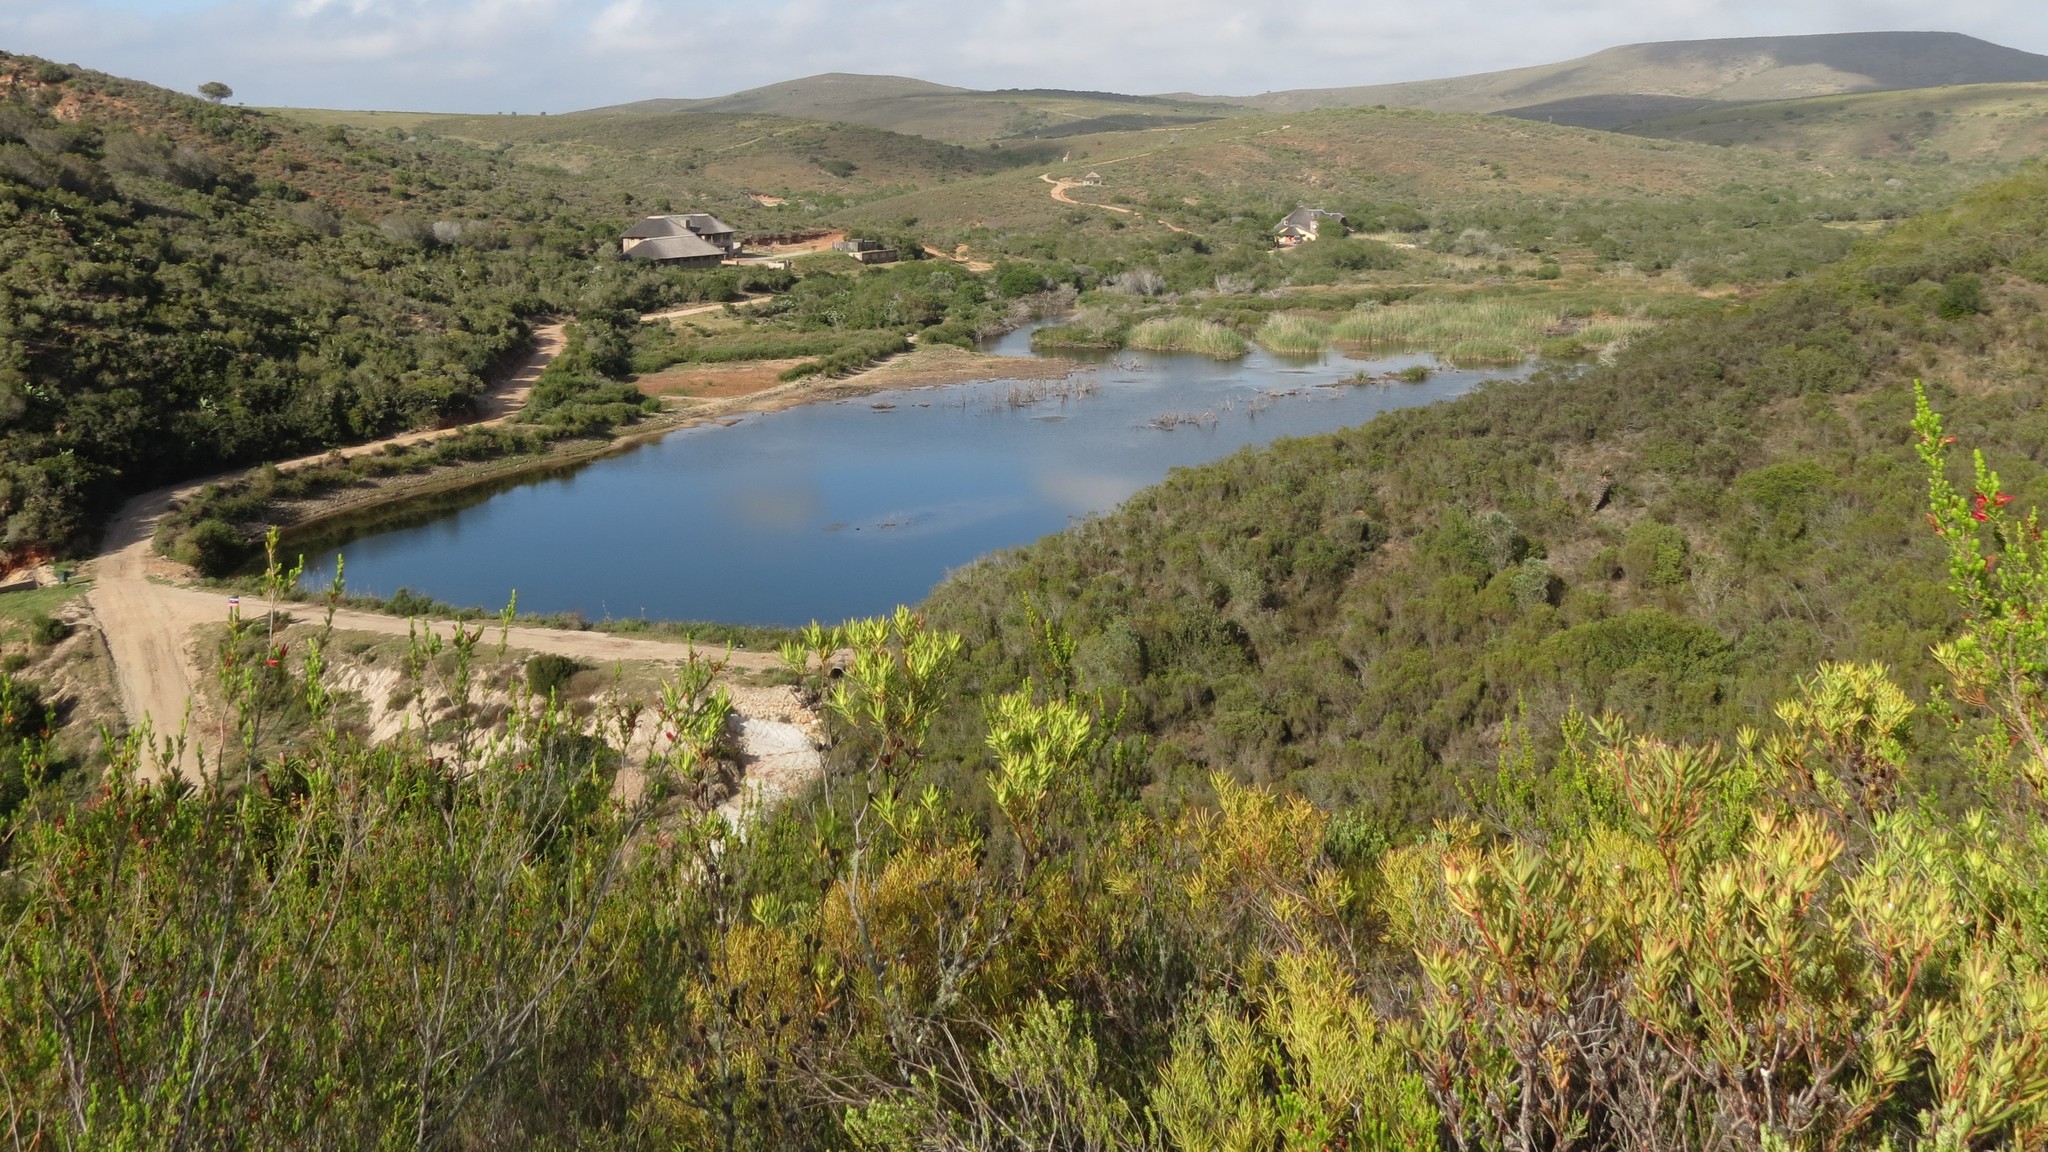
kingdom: Plantae
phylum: Tracheophyta
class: Magnoliopsida
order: Proteales
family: Proteaceae
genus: Leucadendron
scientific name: Leucadendron salignum
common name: Common sunshine conebush
